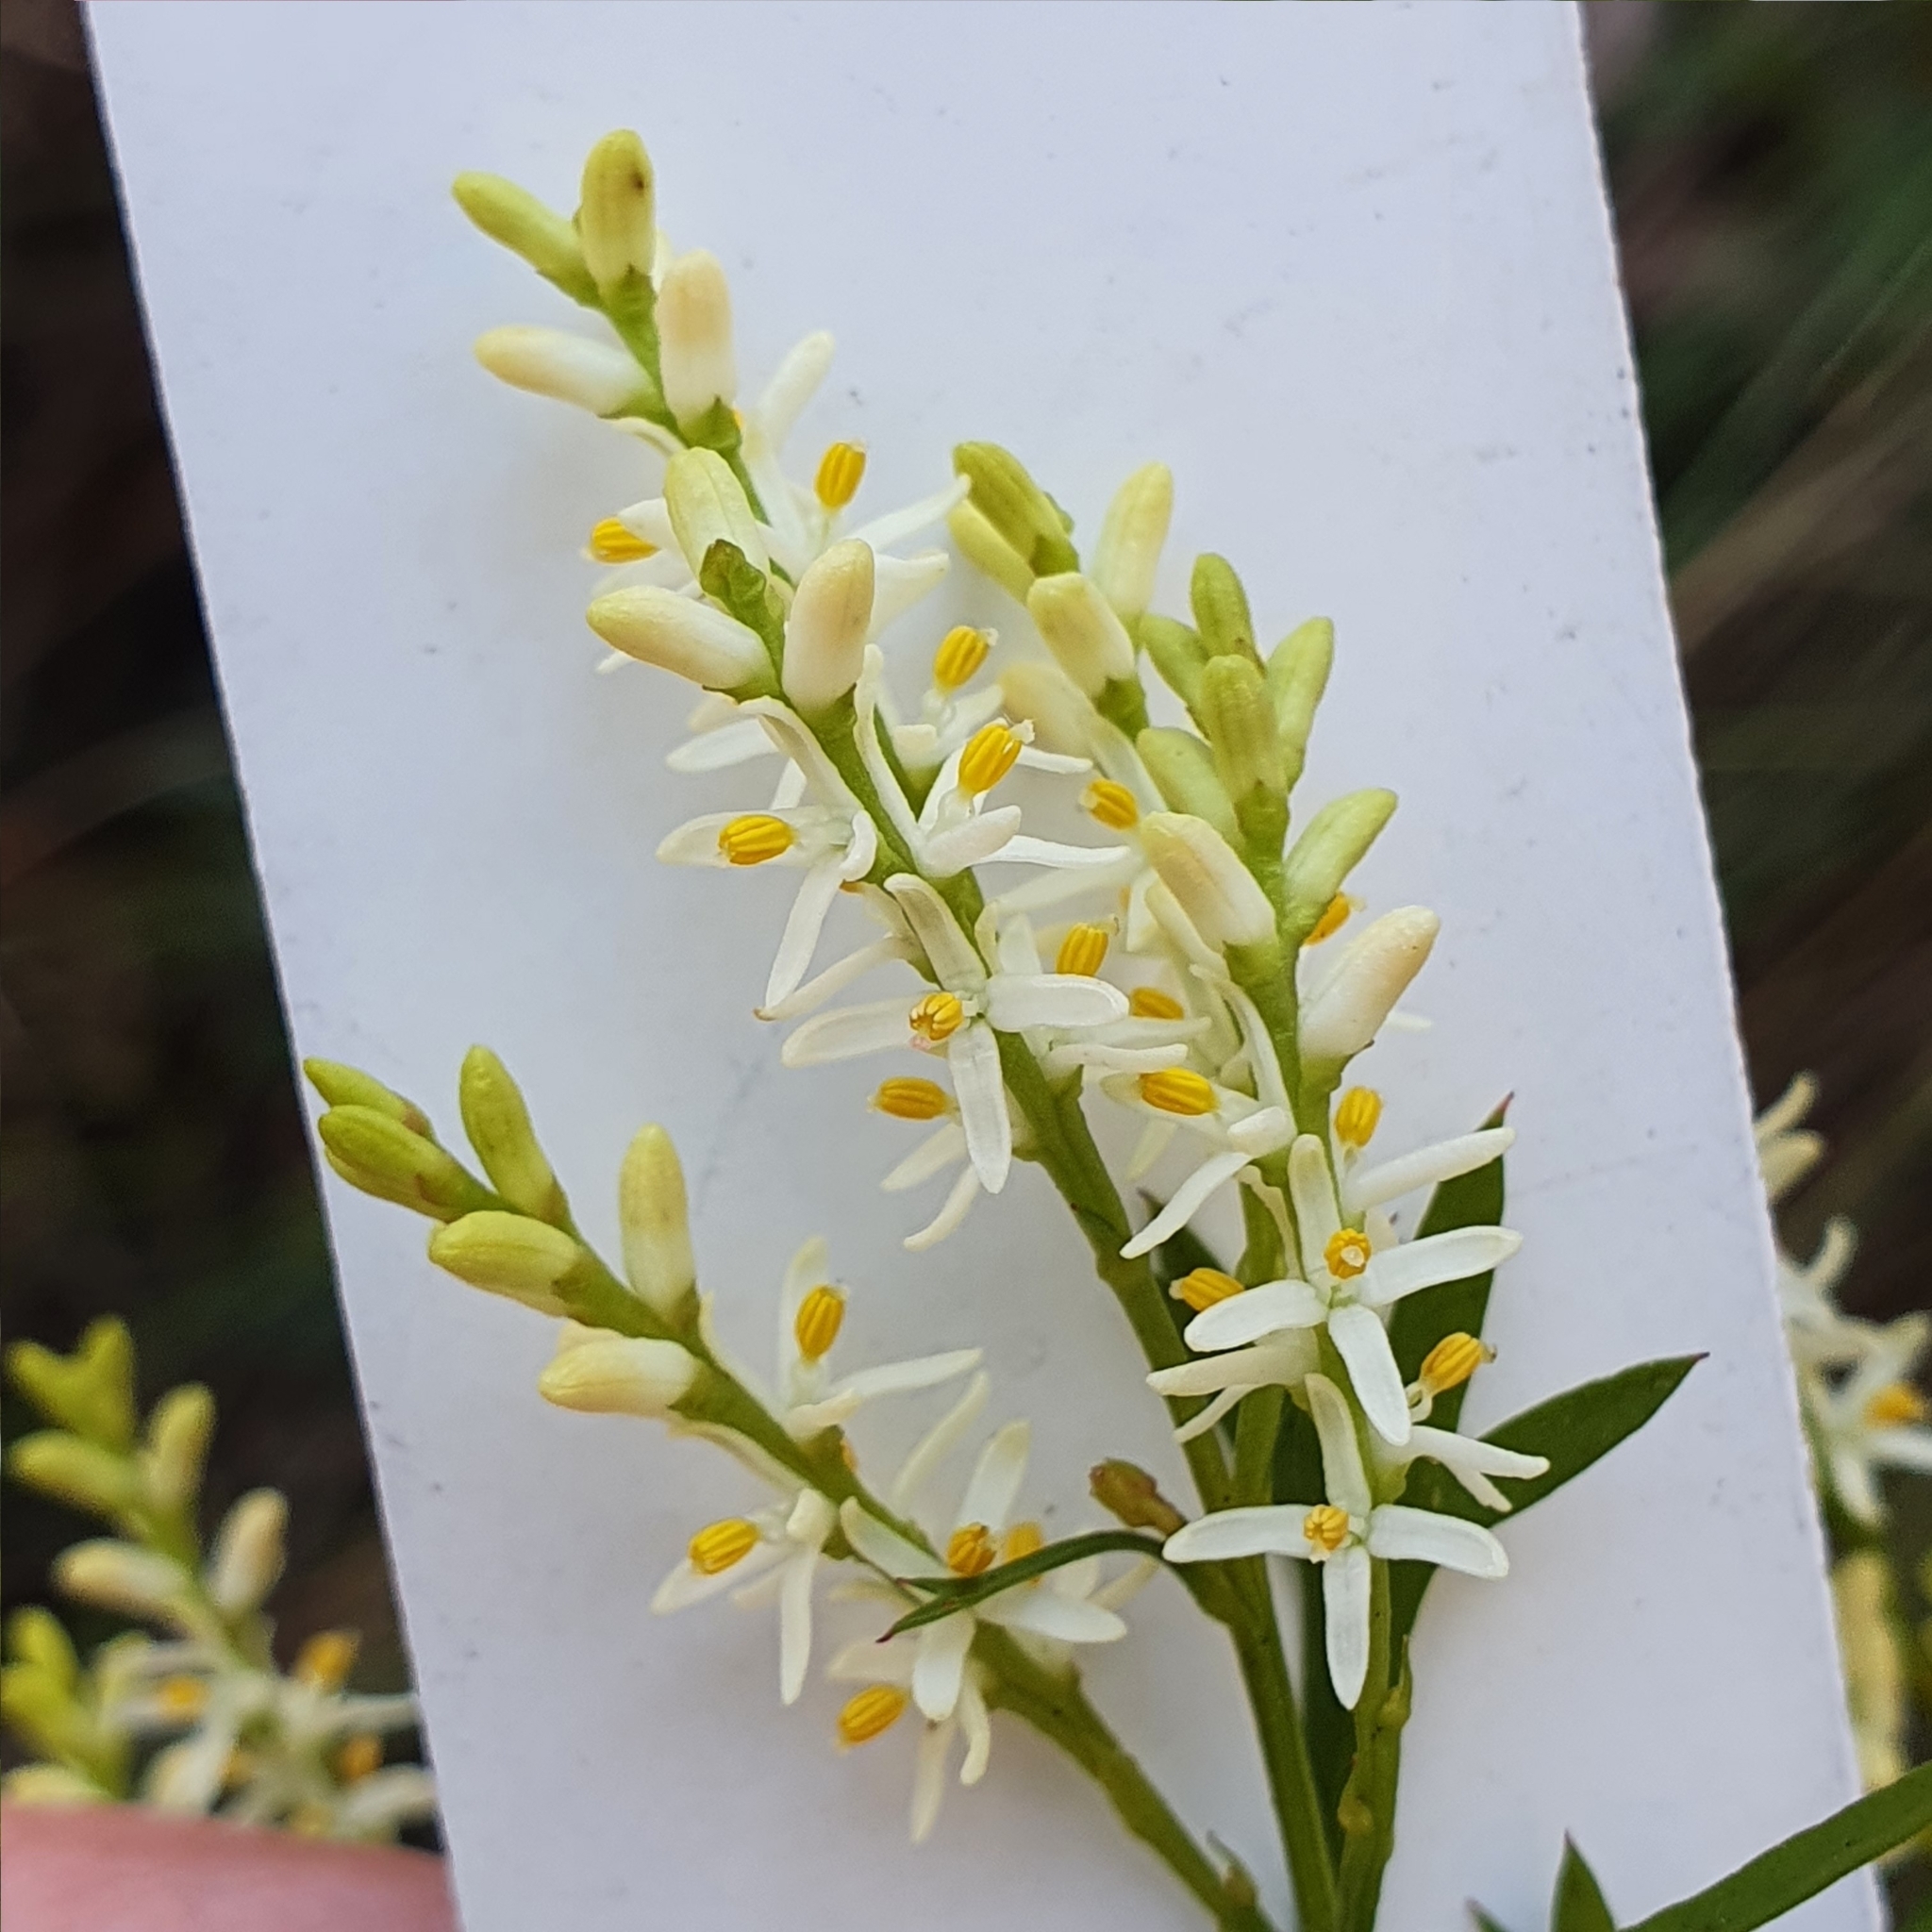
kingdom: Plantae
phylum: Tracheophyta
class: Magnoliopsida
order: Proteales
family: Proteaceae
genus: Symphionema
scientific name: Symphionema montanum
